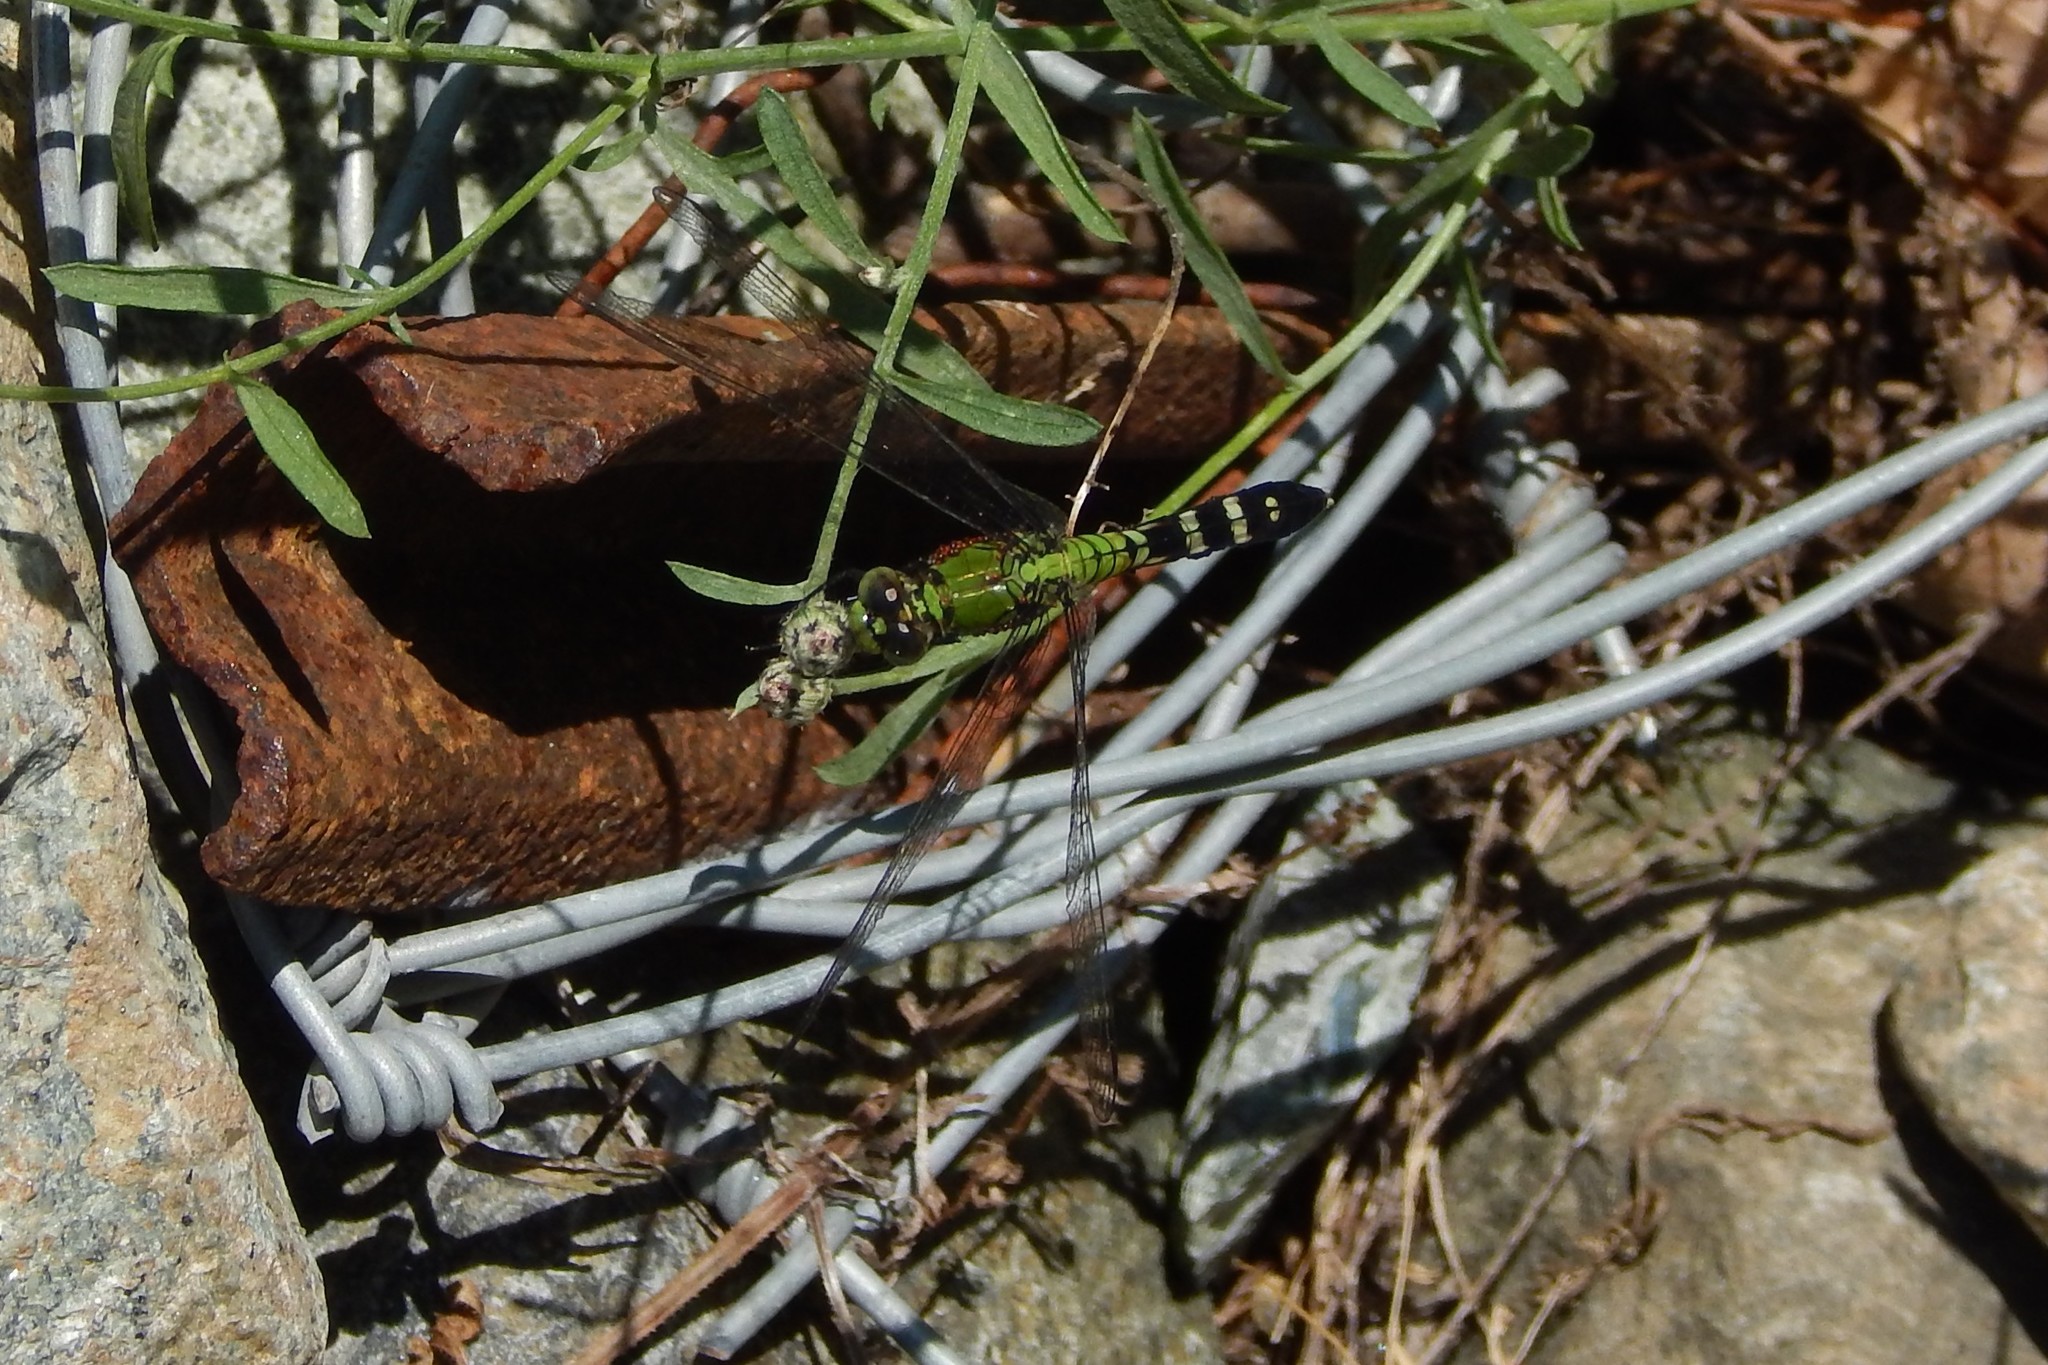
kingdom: Animalia
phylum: Arthropoda
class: Insecta
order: Odonata
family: Libellulidae
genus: Erythemis
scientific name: Erythemis simplicicollis
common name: Eastern pondhawk
